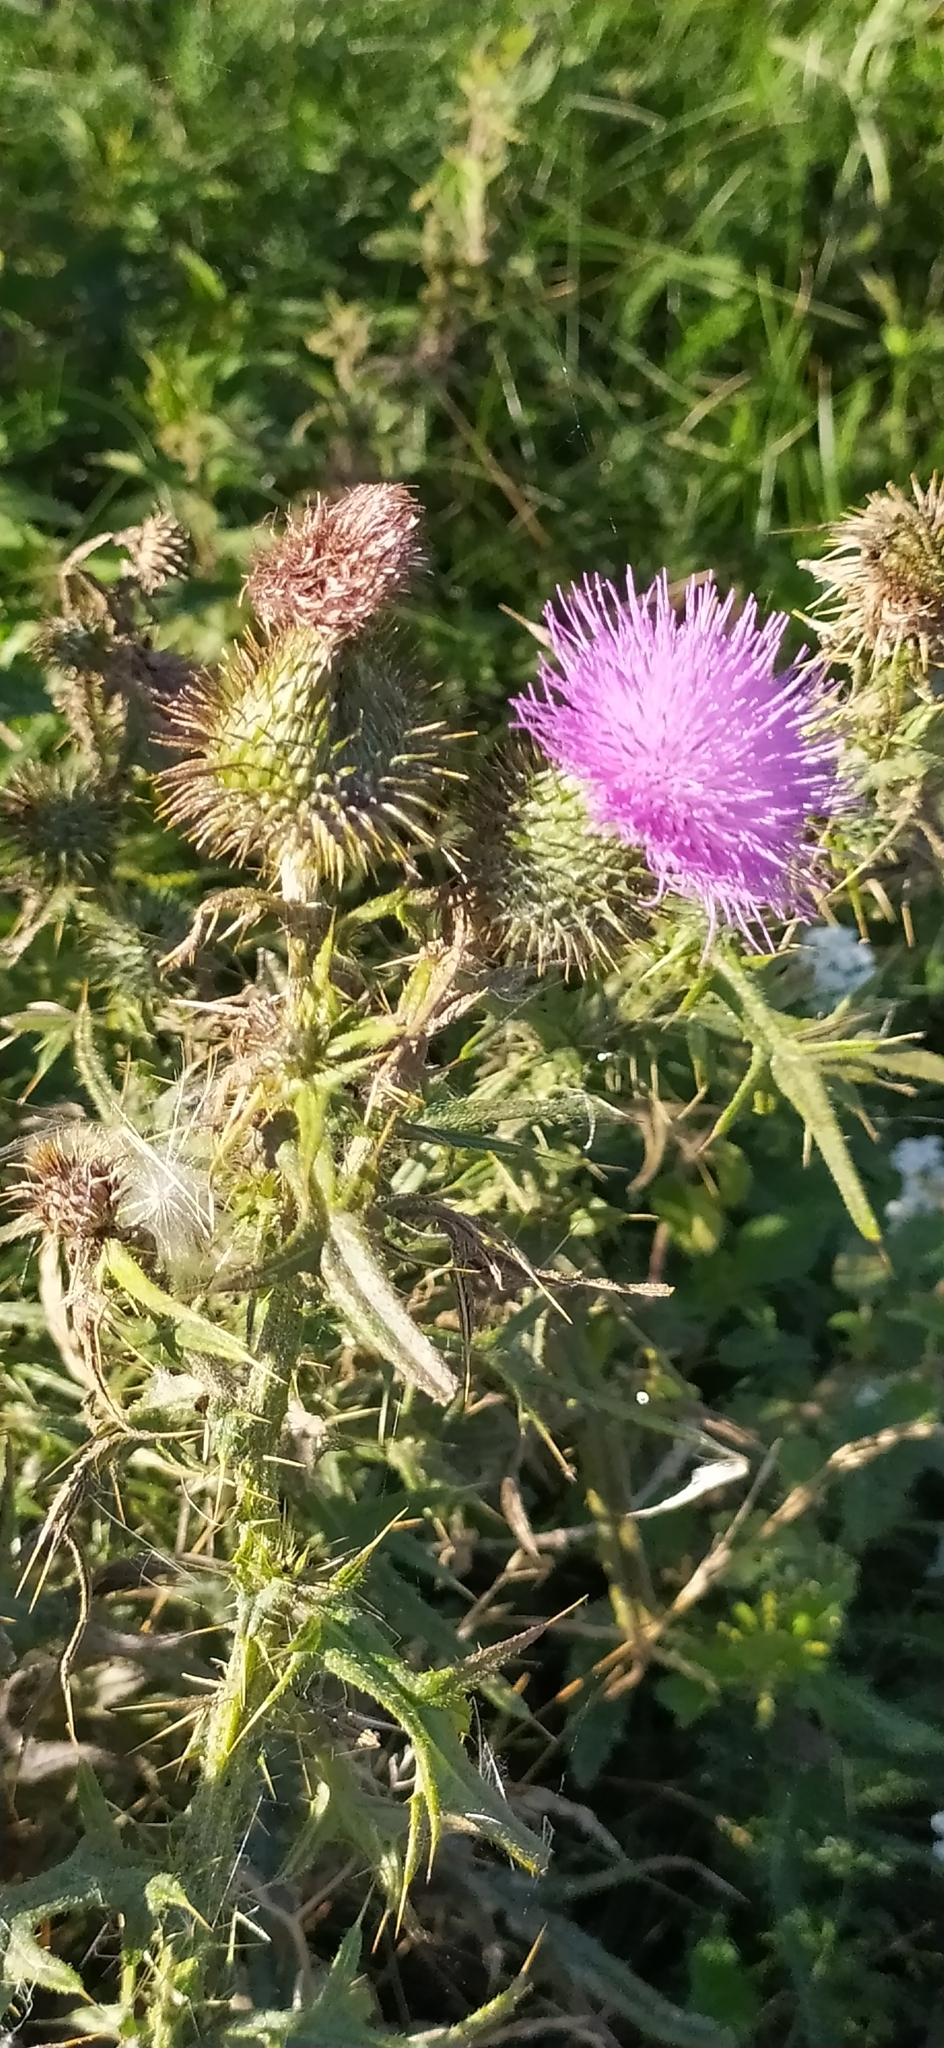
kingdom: Plantae
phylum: Tracheophyta
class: Magnoliopsida
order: Asterales
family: Asteraceae
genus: Cirsium
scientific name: Cirsium vulgare
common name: Bull thistle
